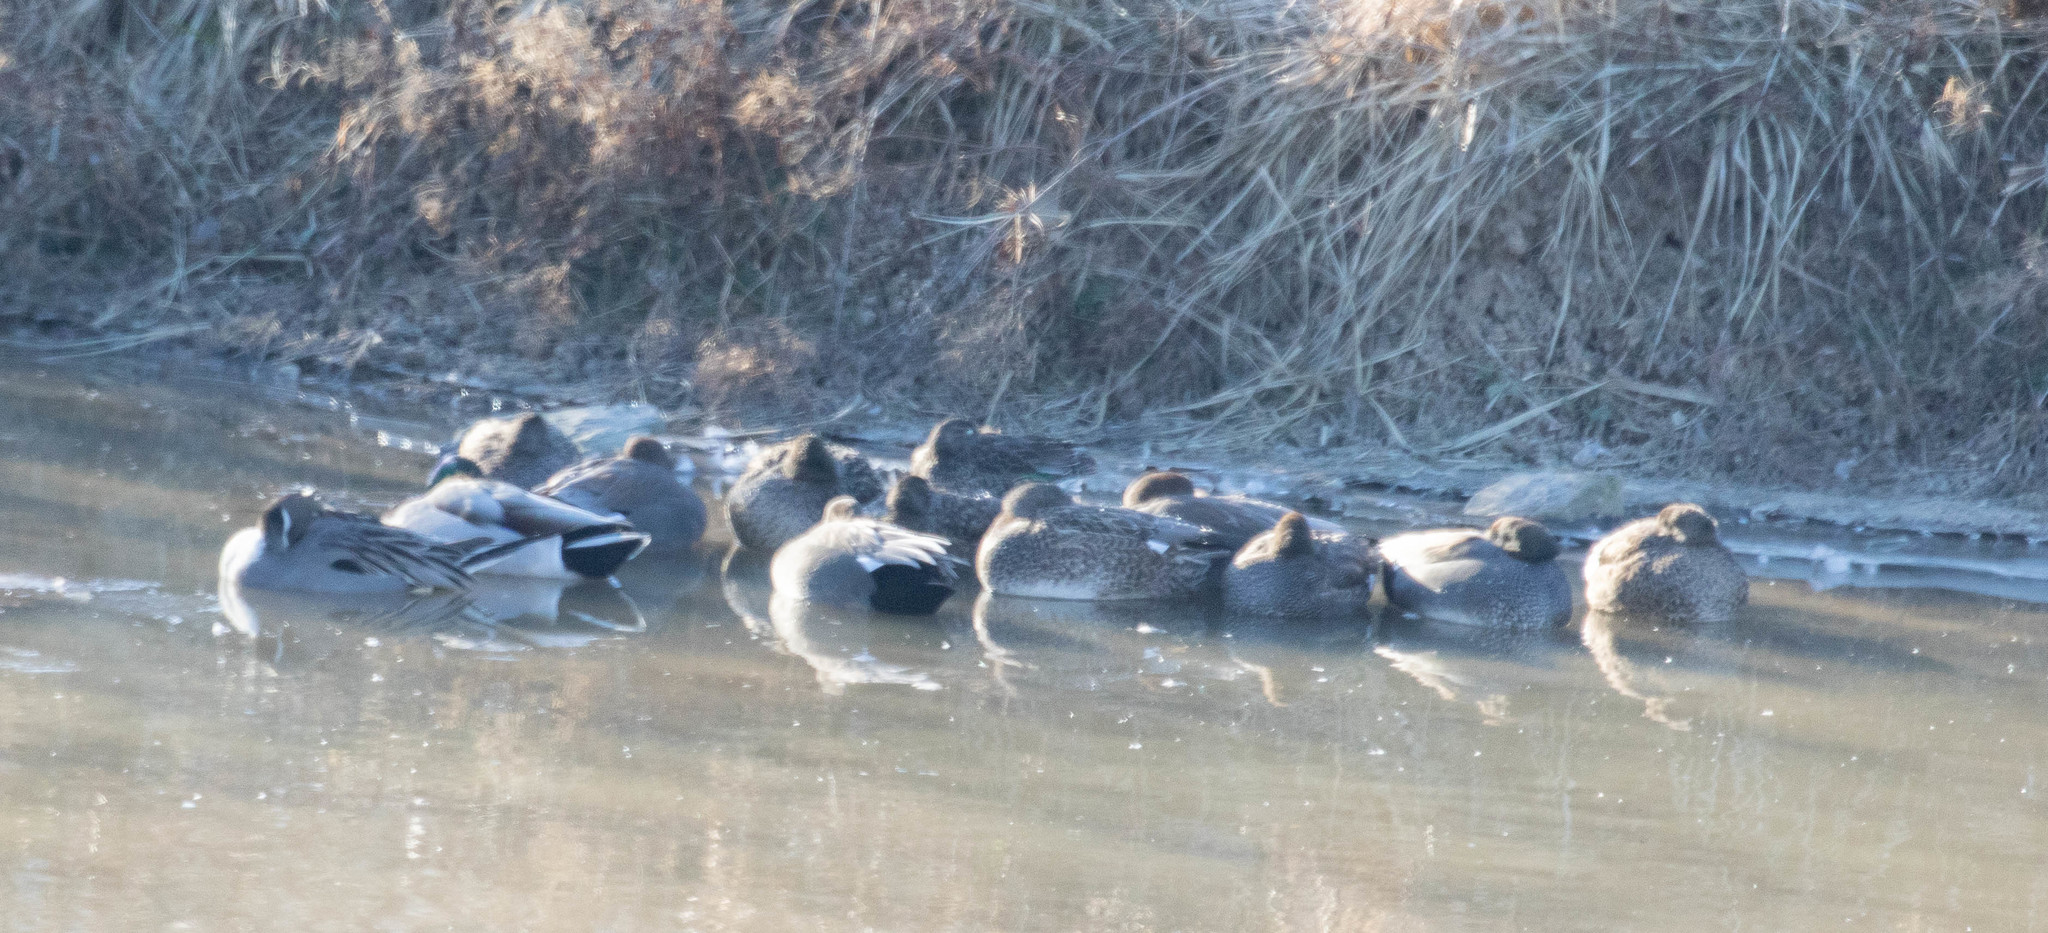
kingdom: Animalia
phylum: Chordata
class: Aves
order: Anseriformes
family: Anatidae
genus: Mareca
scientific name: Mareca strepera
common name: Gadwall
